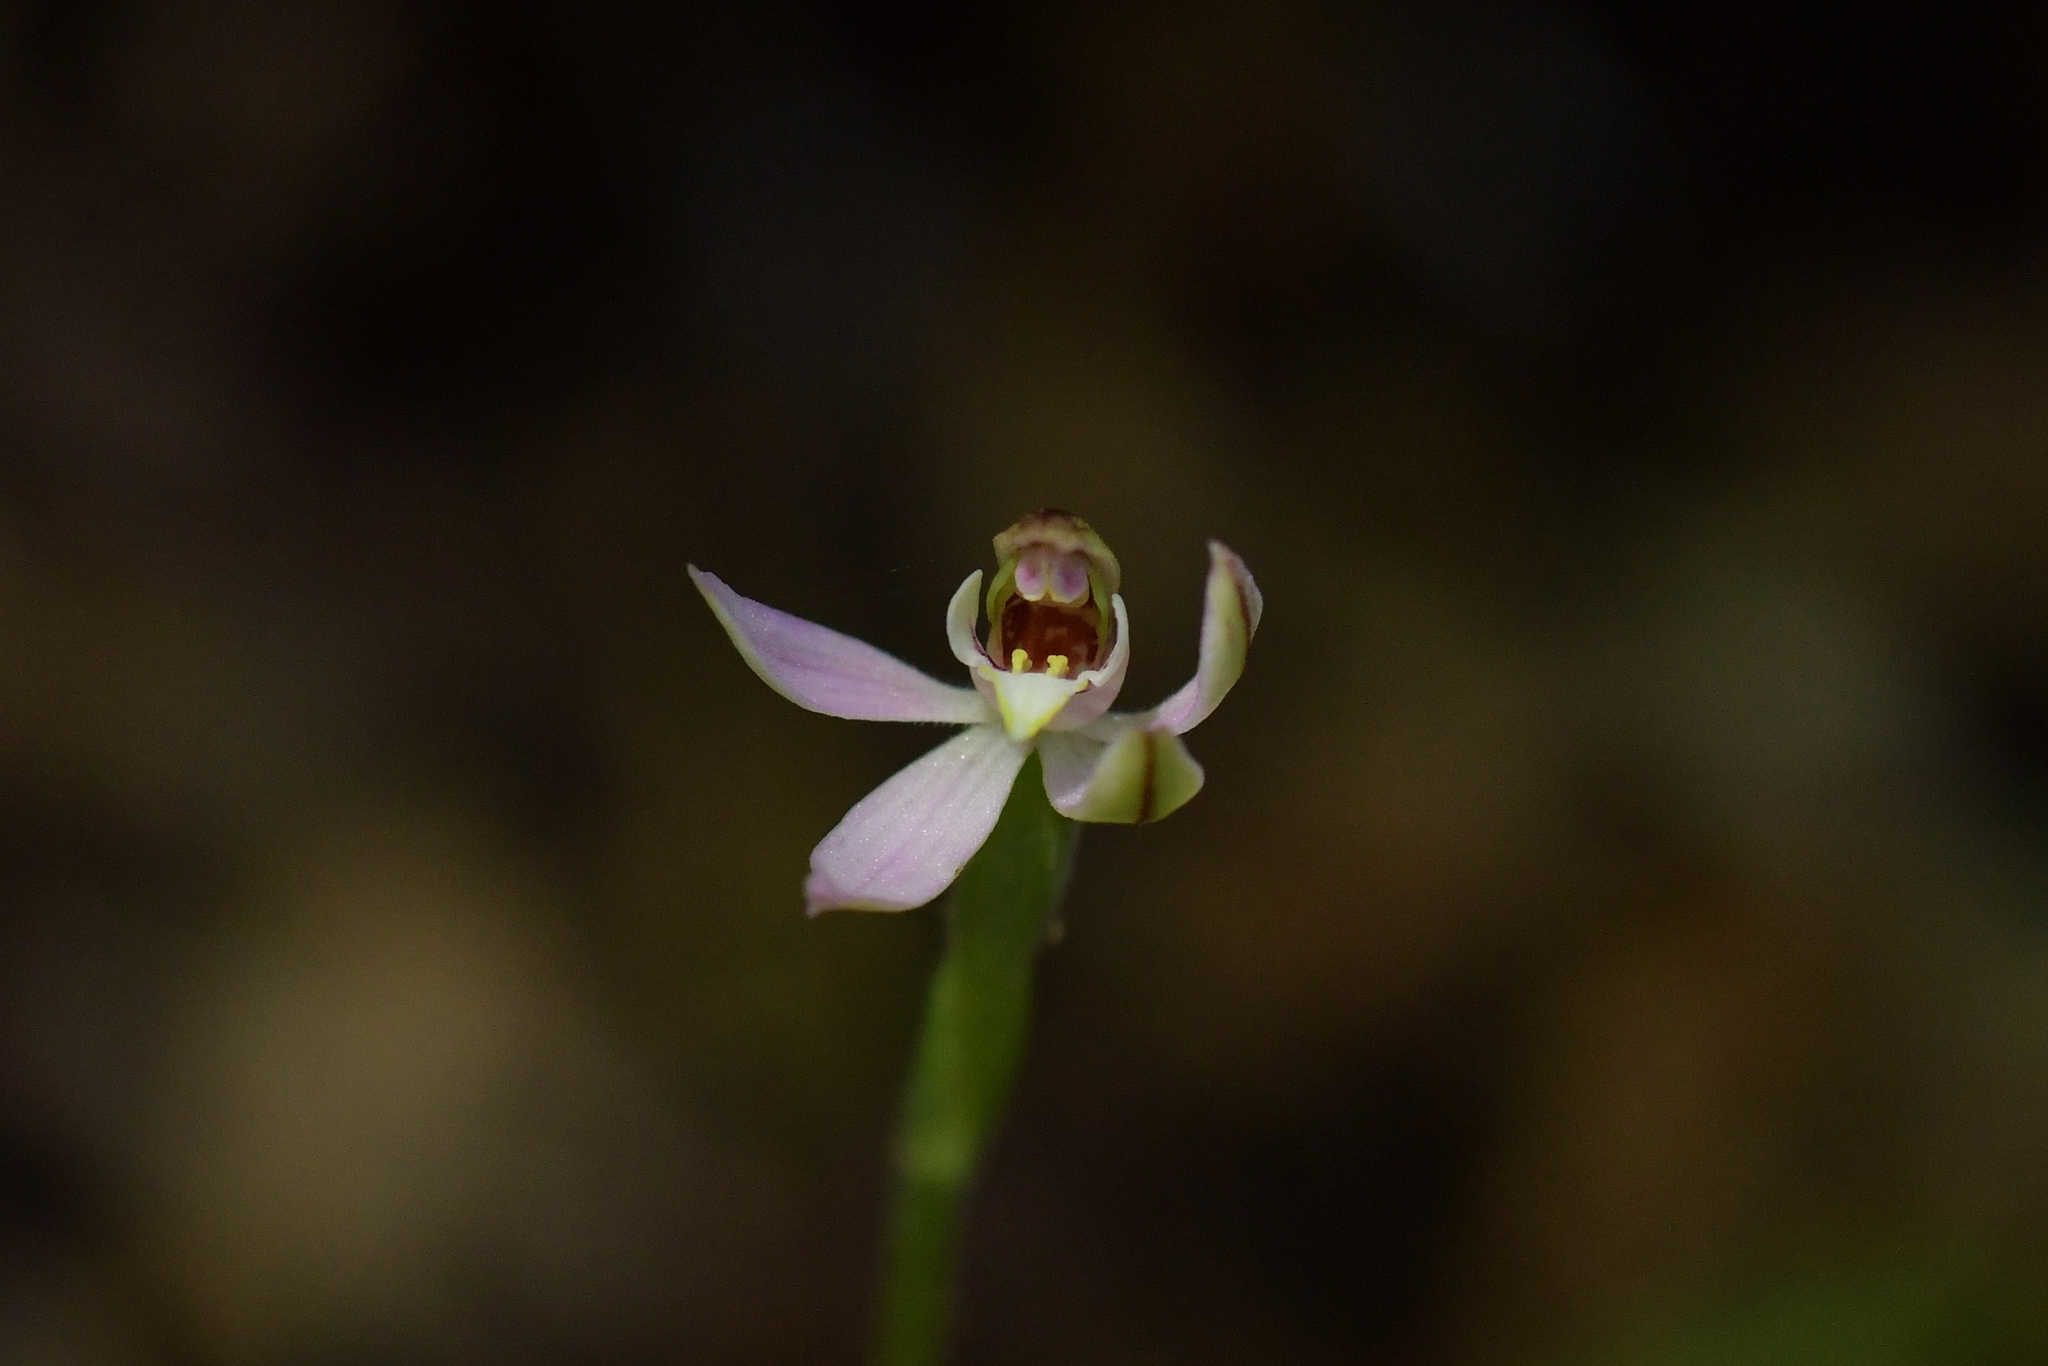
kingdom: Plantae
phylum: Tracheophyta
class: Liliopsida
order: Asparagales
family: Orchidaceae
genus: Caladenia
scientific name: Caladenia variegata
